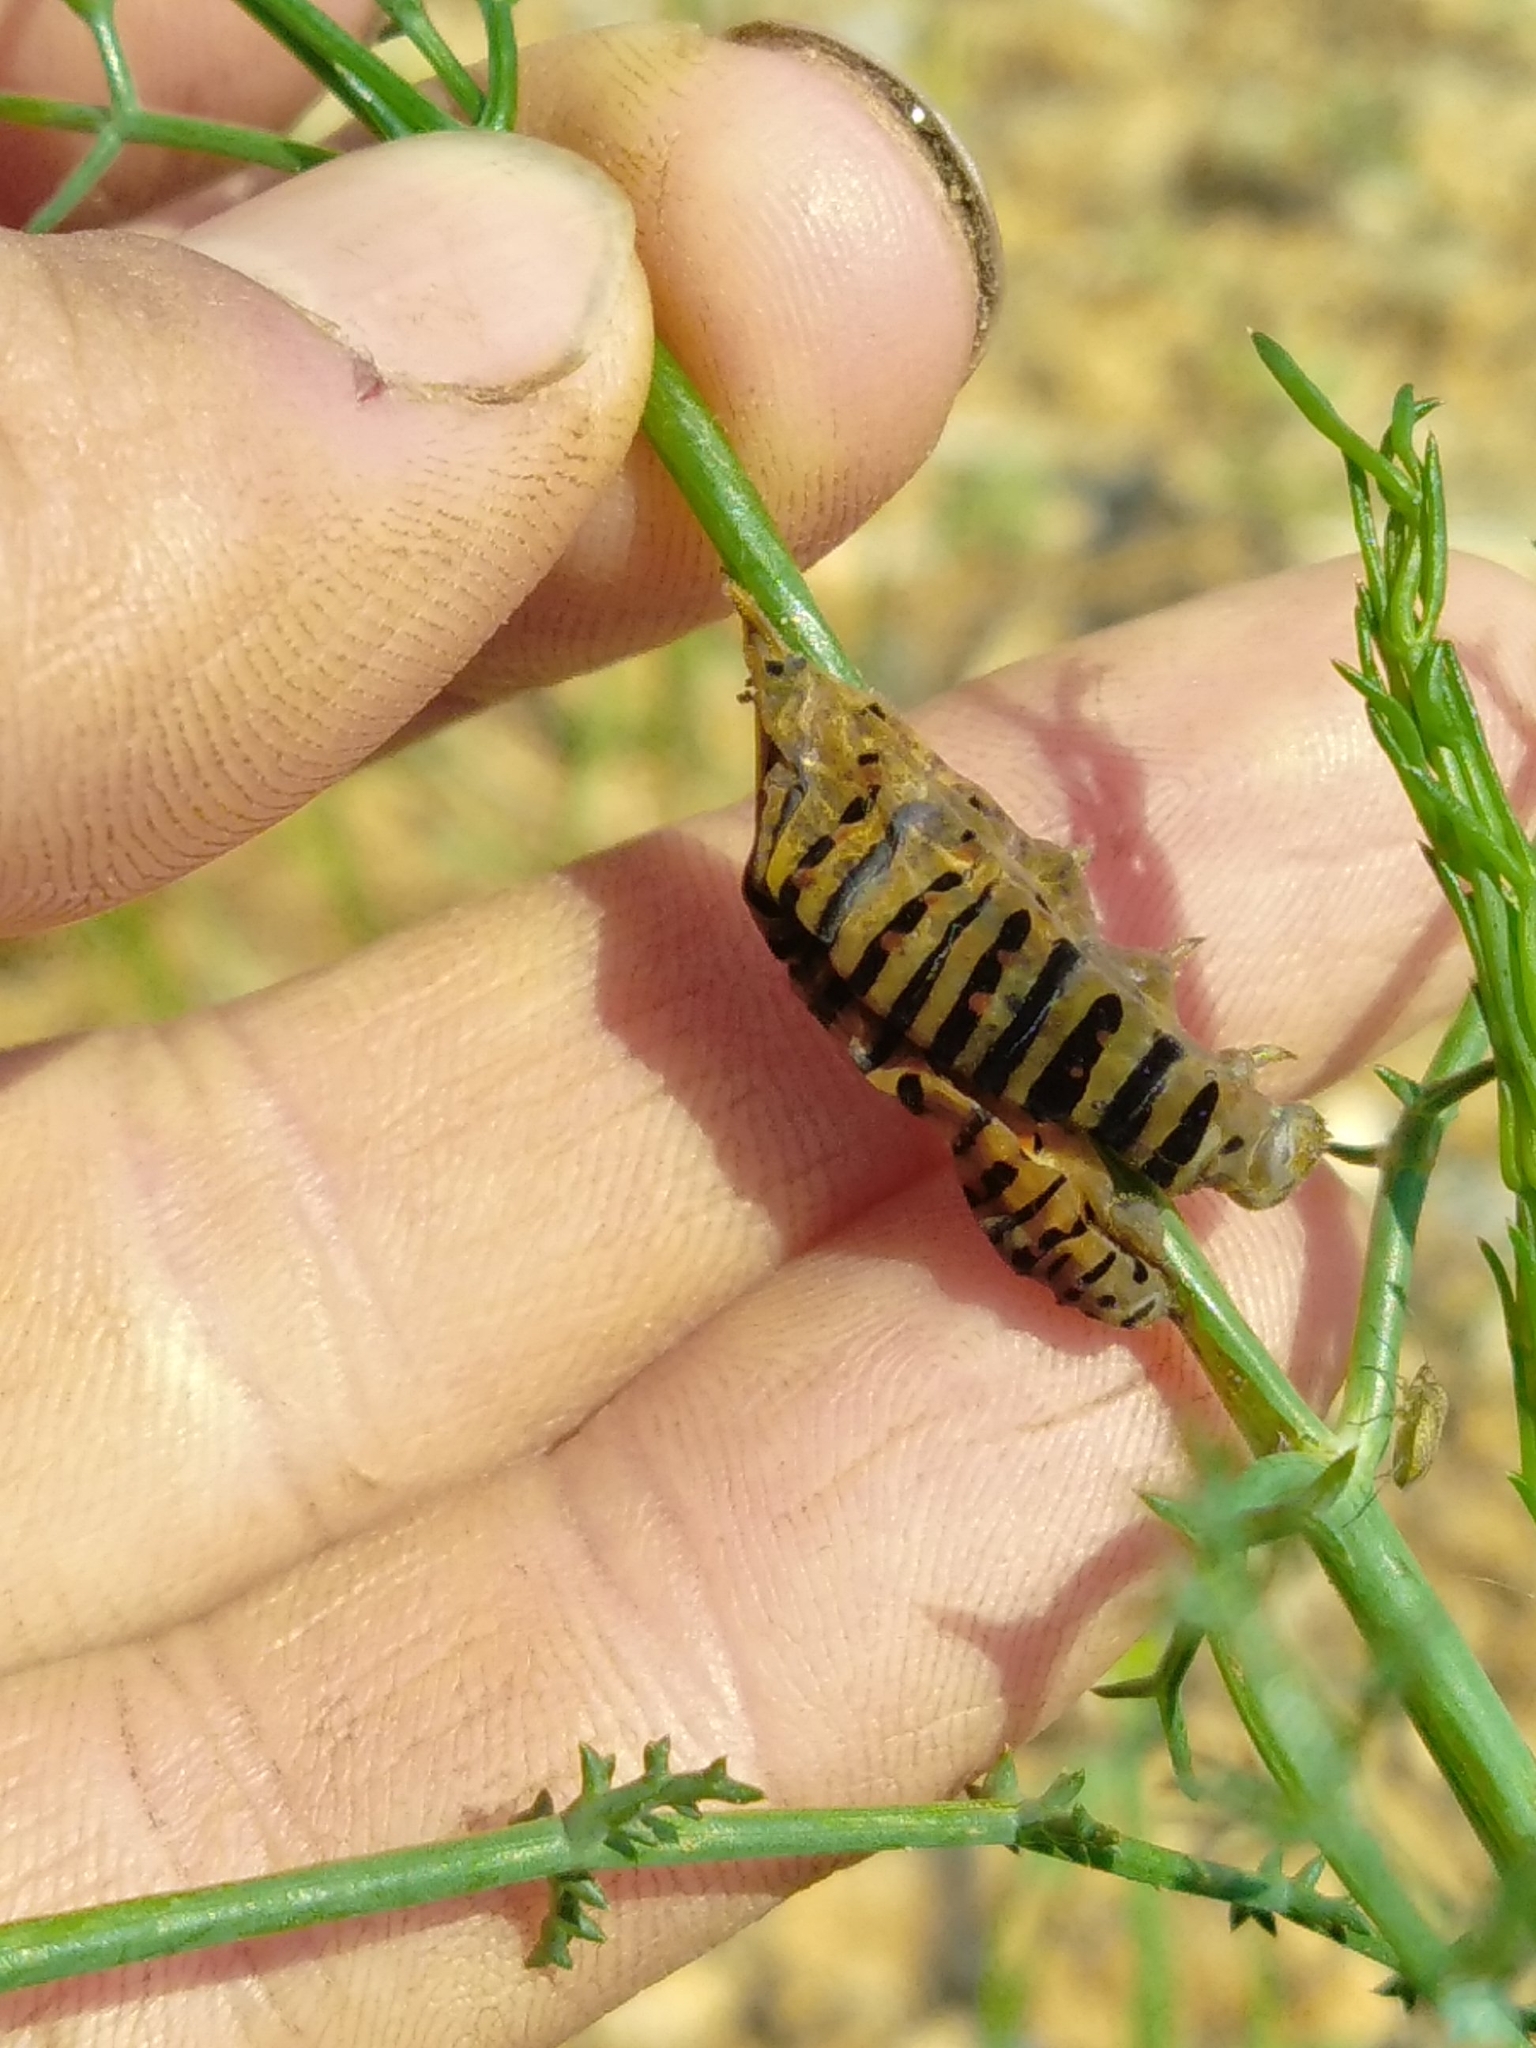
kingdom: Animalia
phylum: Arthropoda
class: Insecta
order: Lepidoptera
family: Papilionidae
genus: Papilio
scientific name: Papilio machaon
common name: Swallowtail
